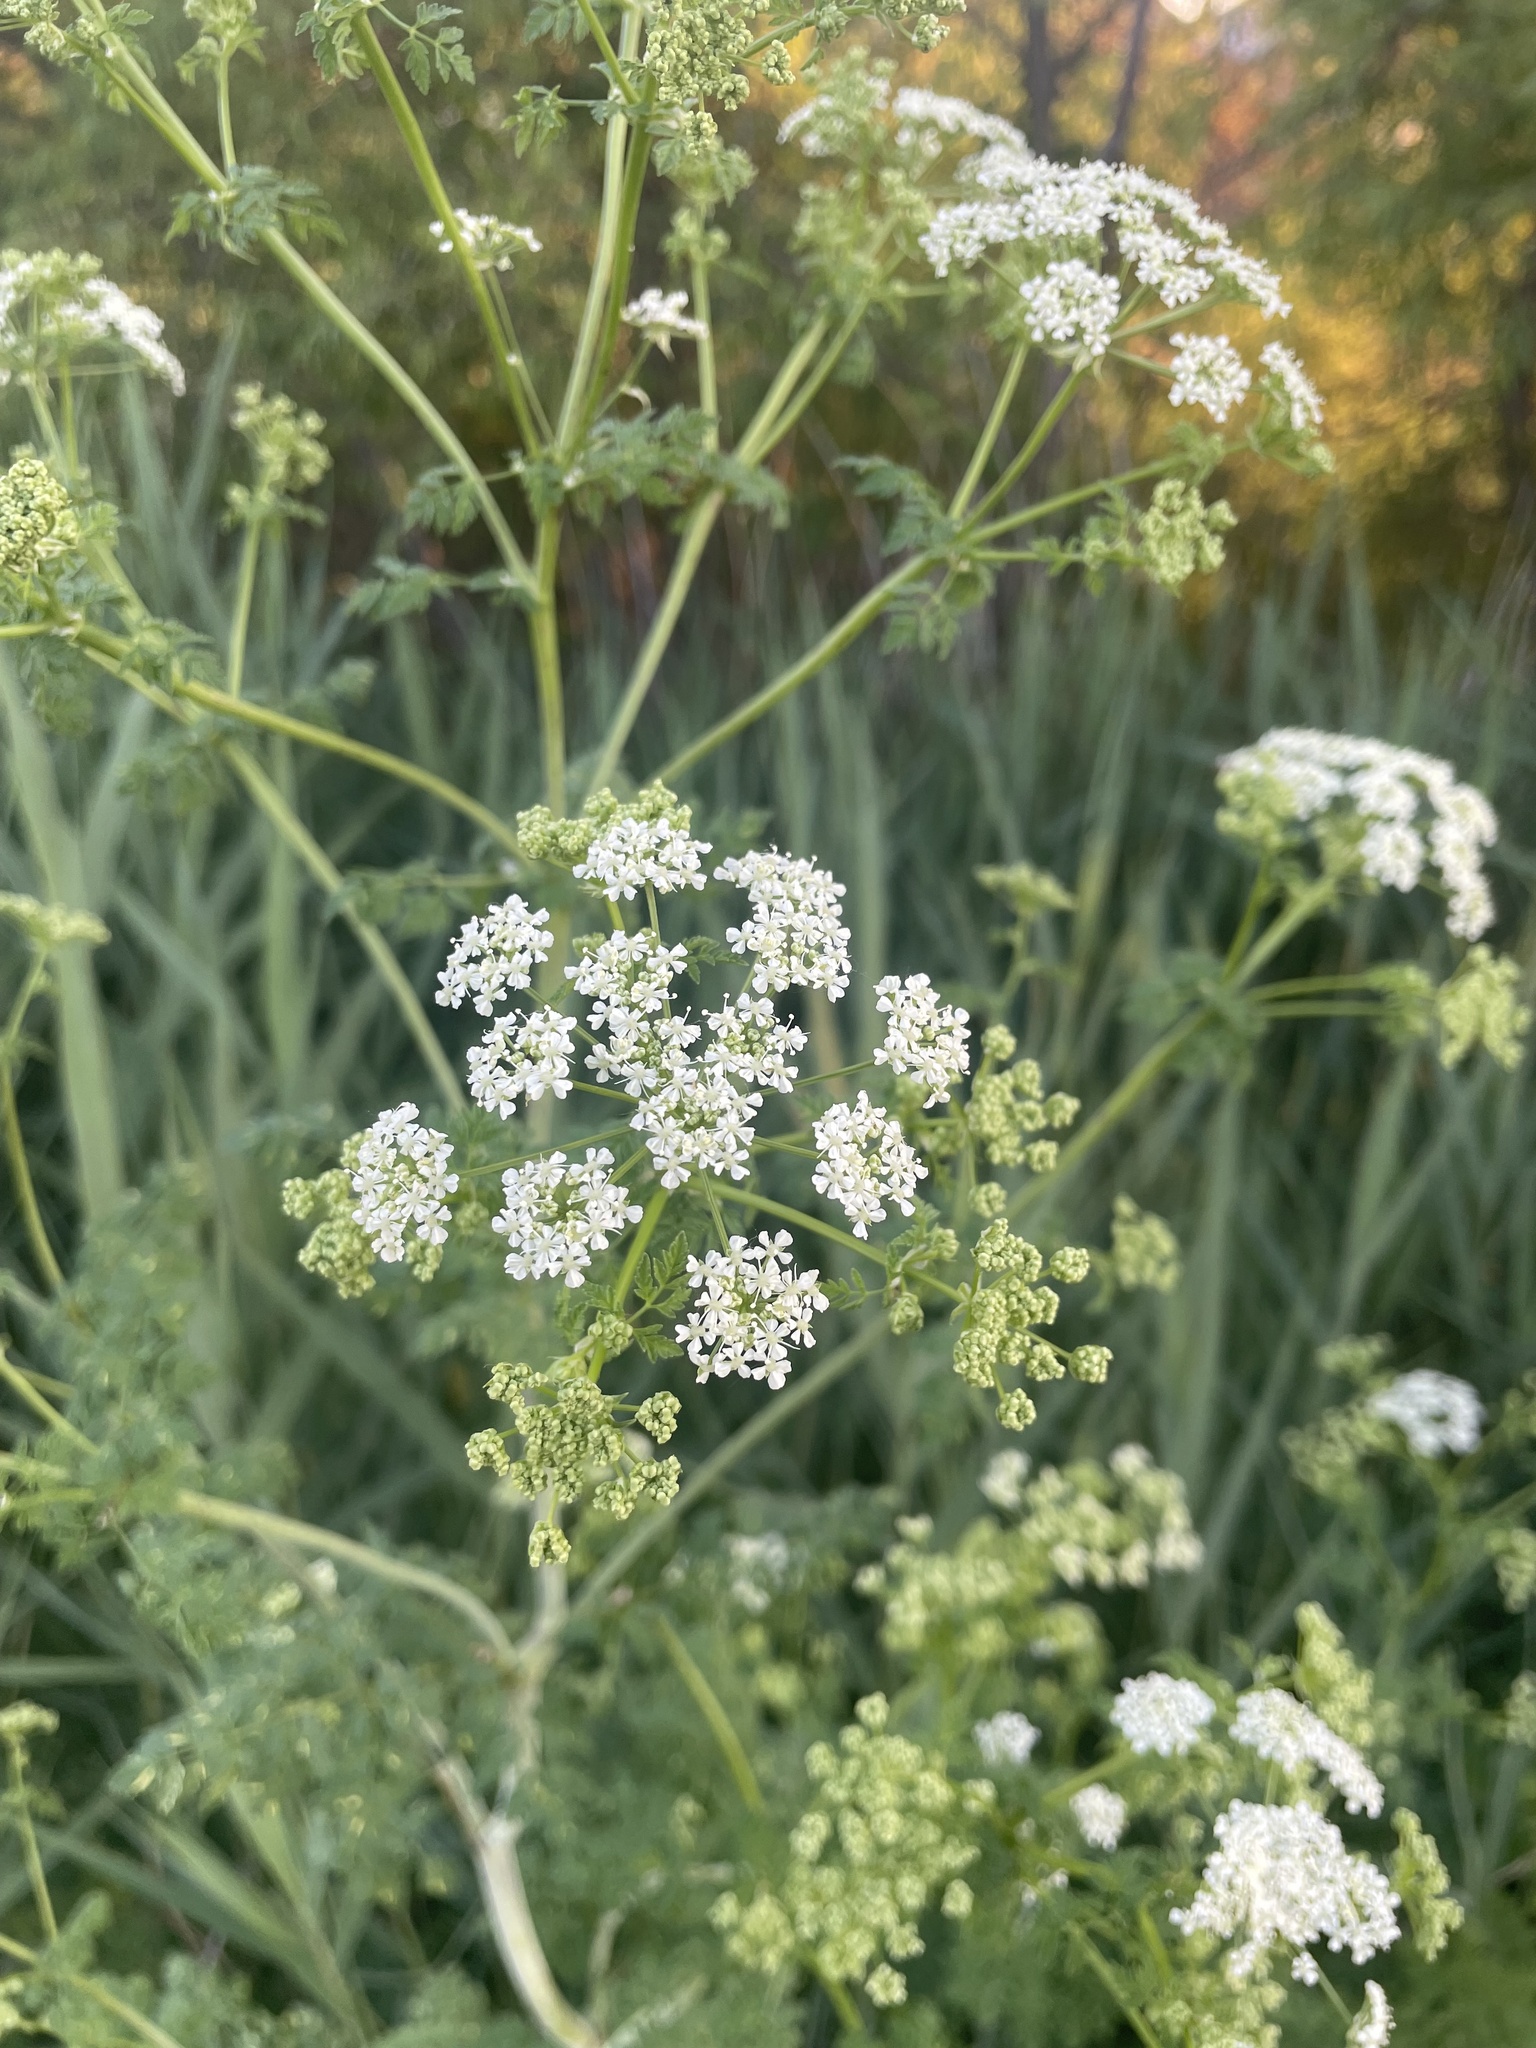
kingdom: Plantae
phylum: Tracheophyta
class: Magnoliopsida
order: Apiales
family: Apiaceae
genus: Conium
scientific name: Conium maculatum
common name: Hemlock
